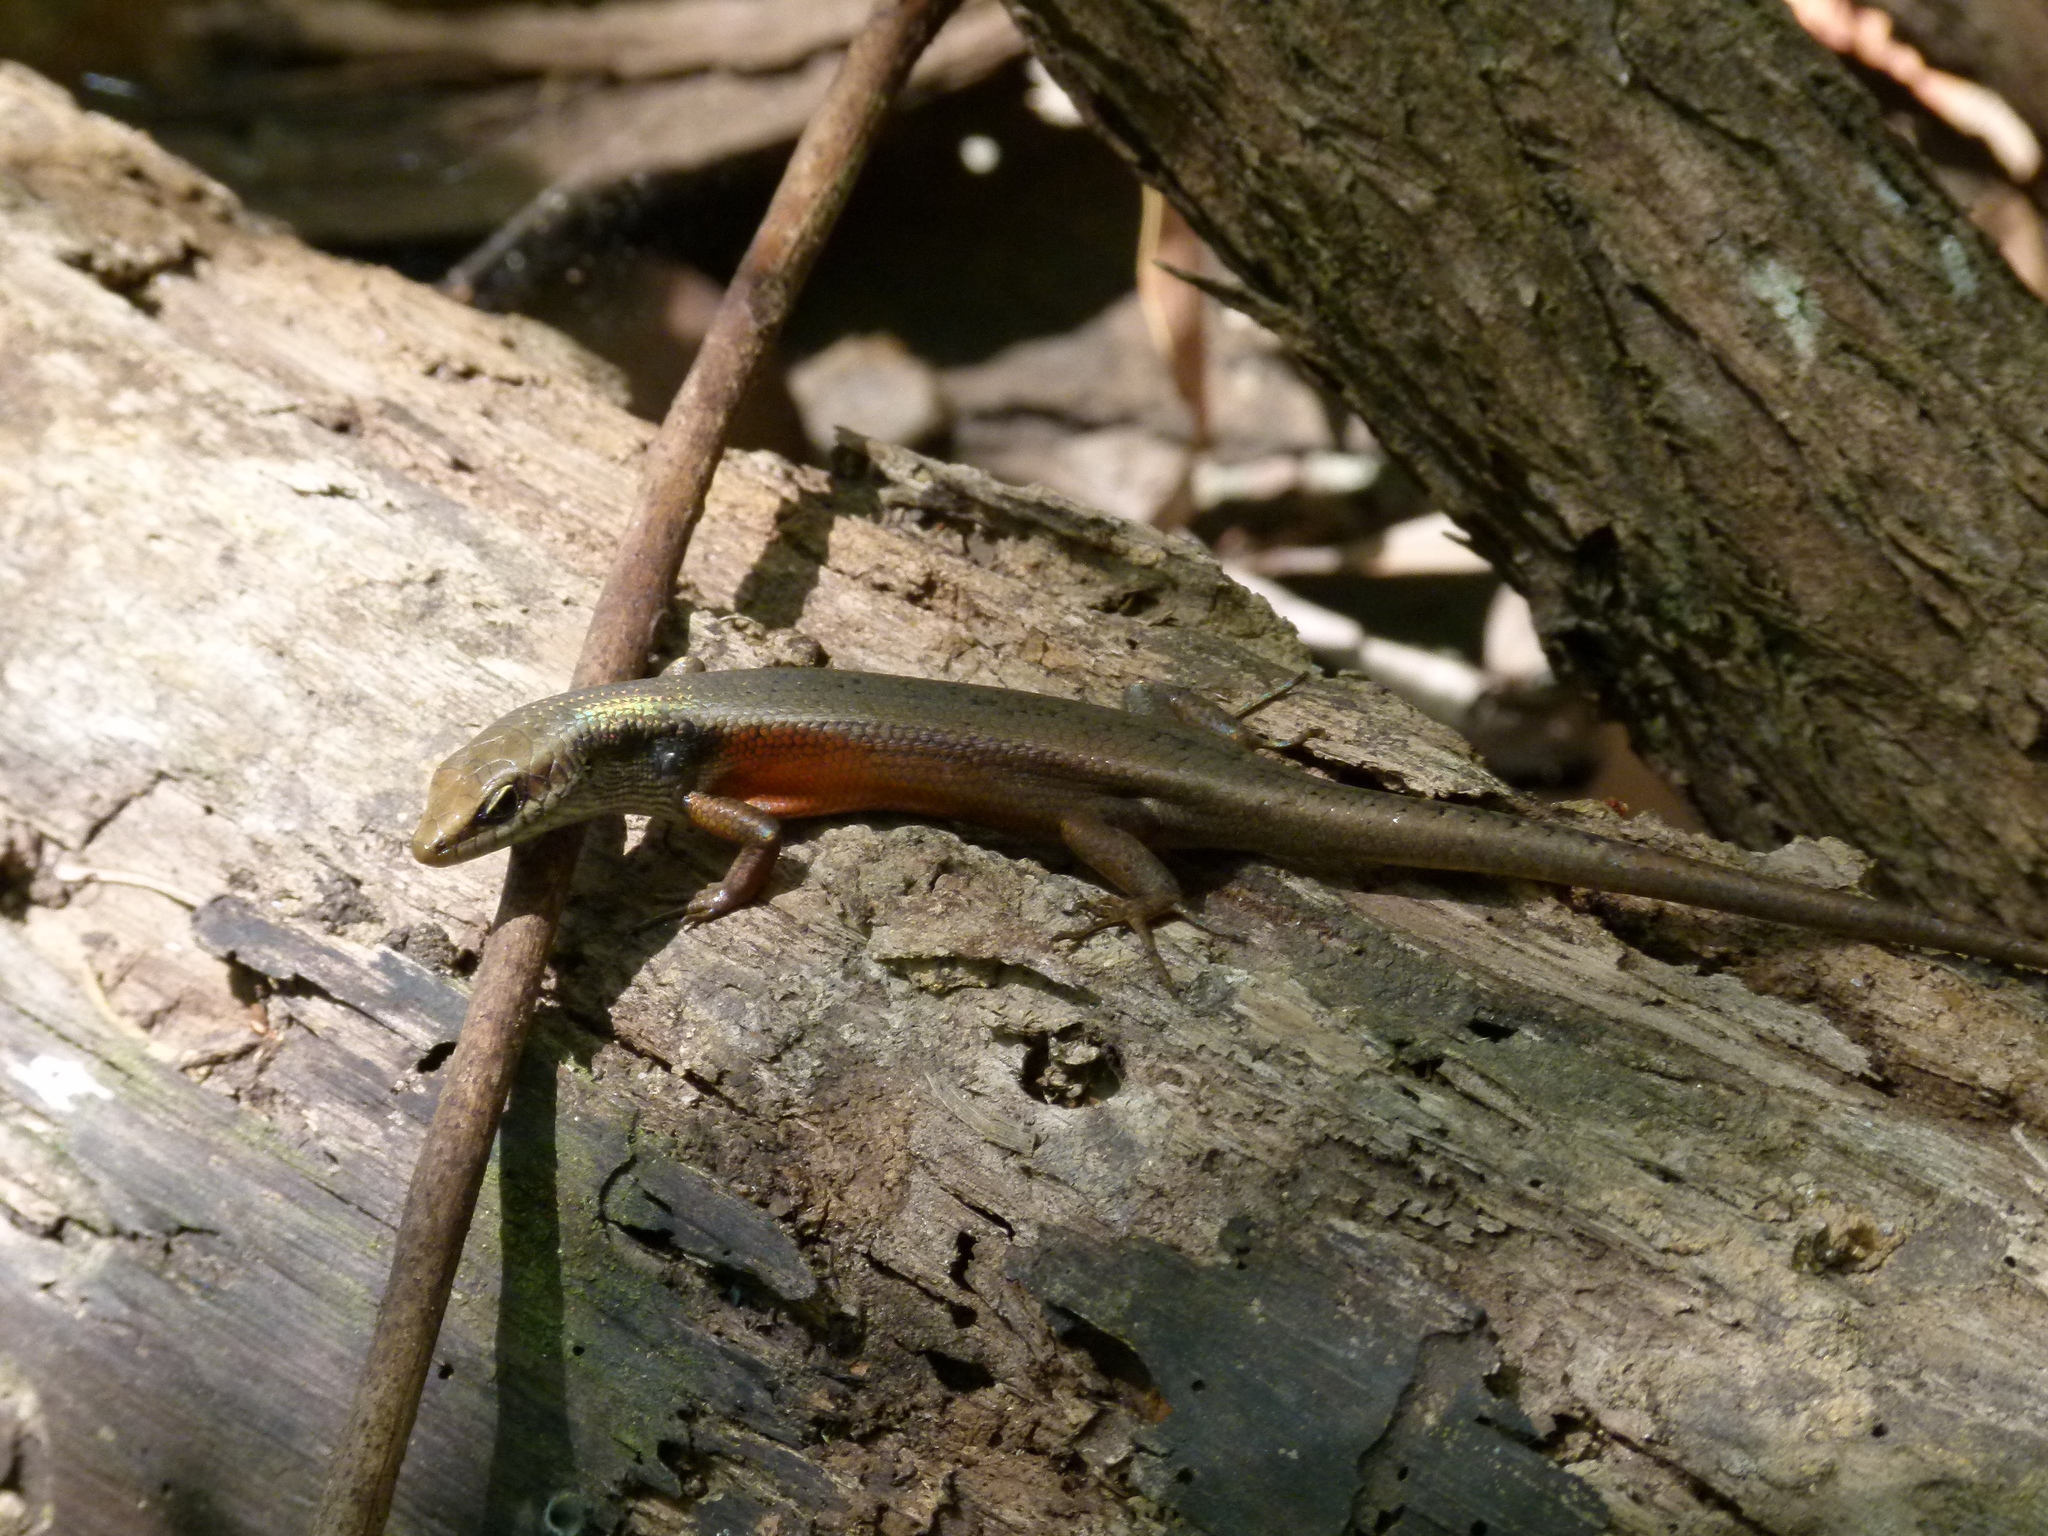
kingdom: Animalia
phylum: Chordata
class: Squamata
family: Scincidae
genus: Carlia
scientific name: Carlia longipes
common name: Closed-litter rainbow-skink
